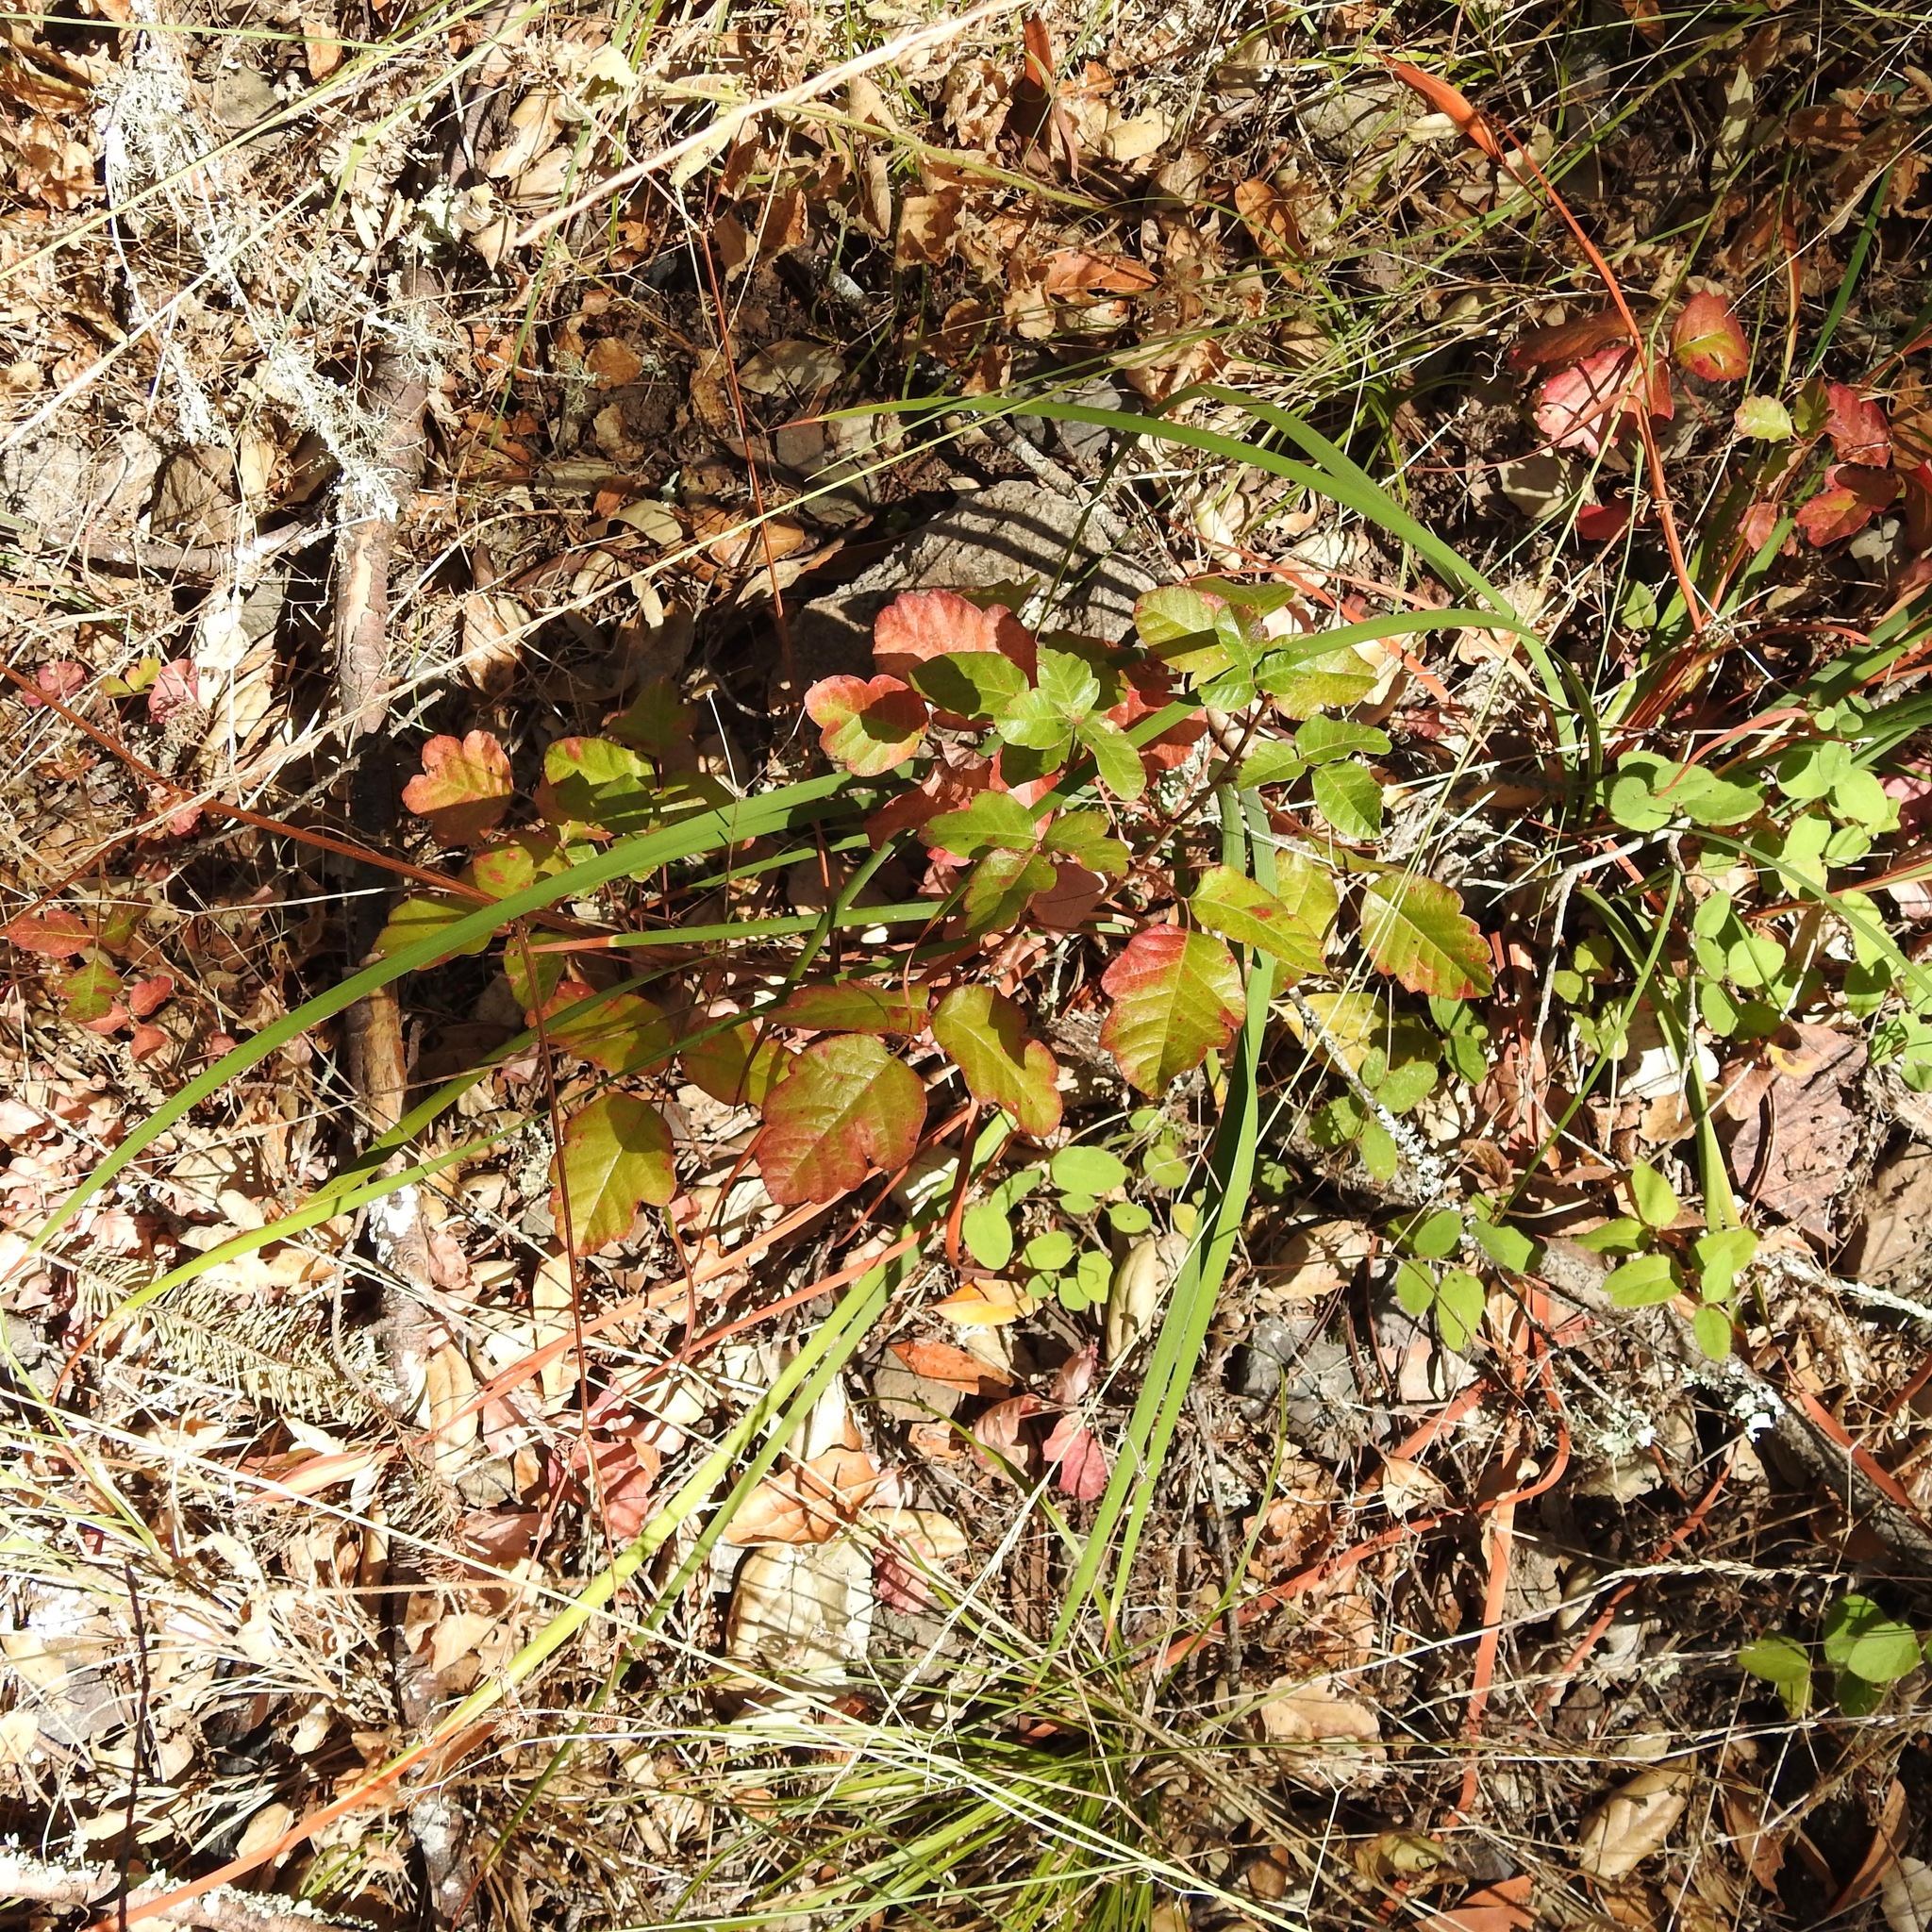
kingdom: Plantae
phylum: Tracheophyta
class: Magnoliopsida
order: Sapindales
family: Anacardiaceae
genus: Toxicodendron
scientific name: Toxicodendron diversilobum
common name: Pacific poison-oak
